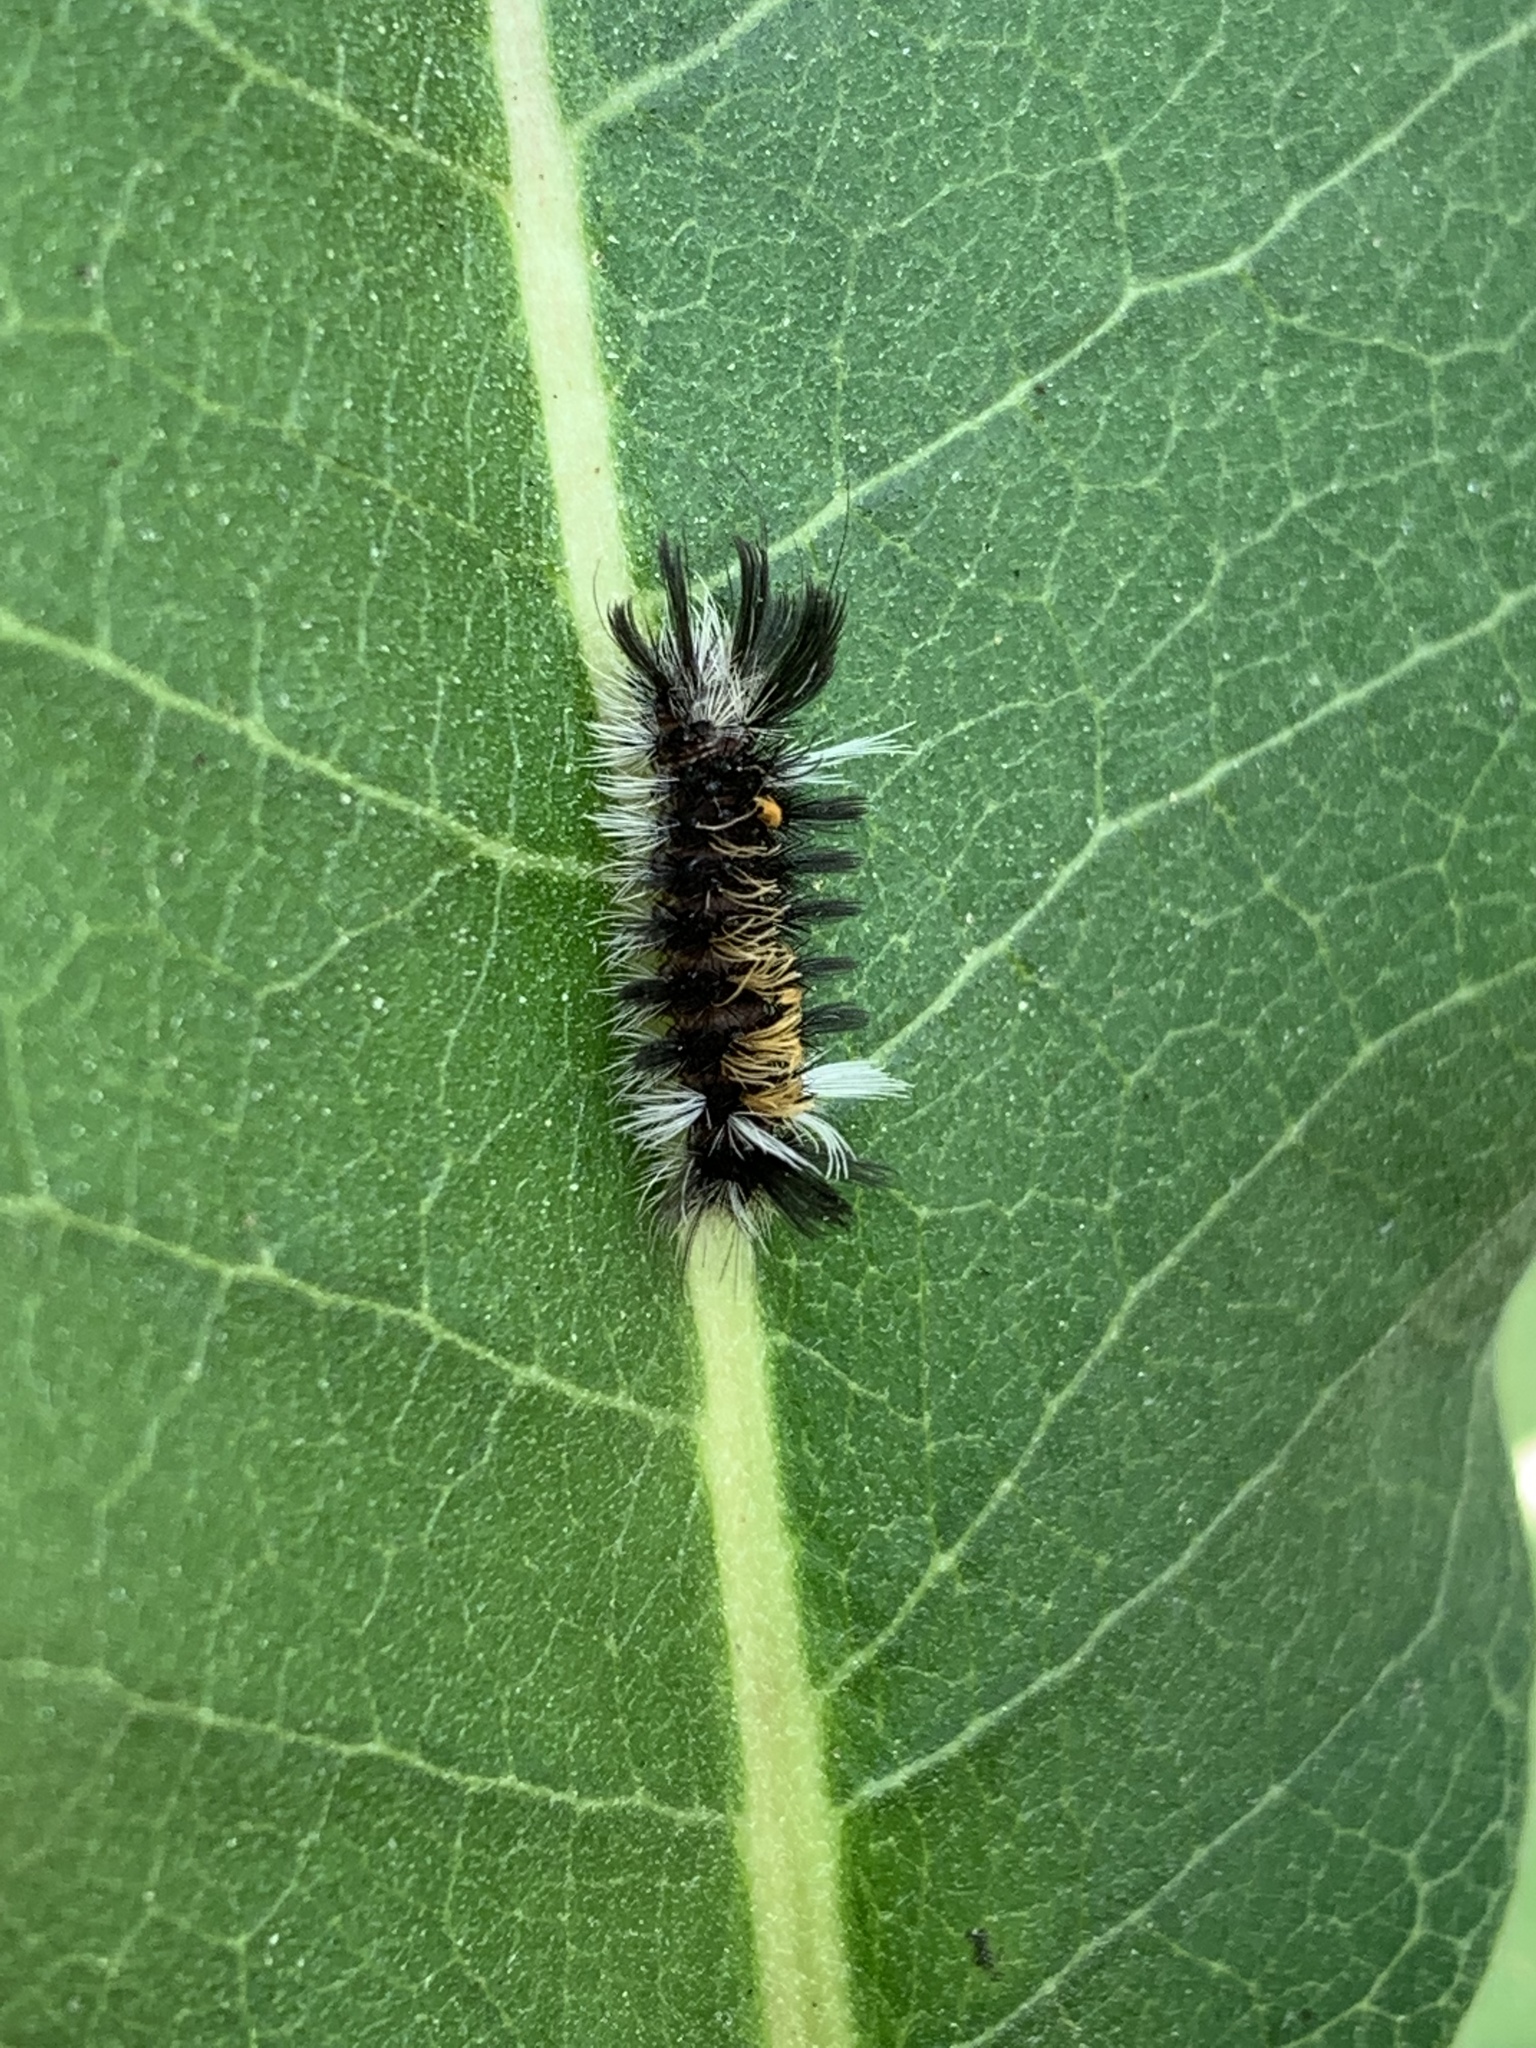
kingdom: Animalia
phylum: Arthropoda
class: Insecta
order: Lepidoptera
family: Erebidae
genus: Euchaetes
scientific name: Euchaetes egle
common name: Milkweed tussock moth
